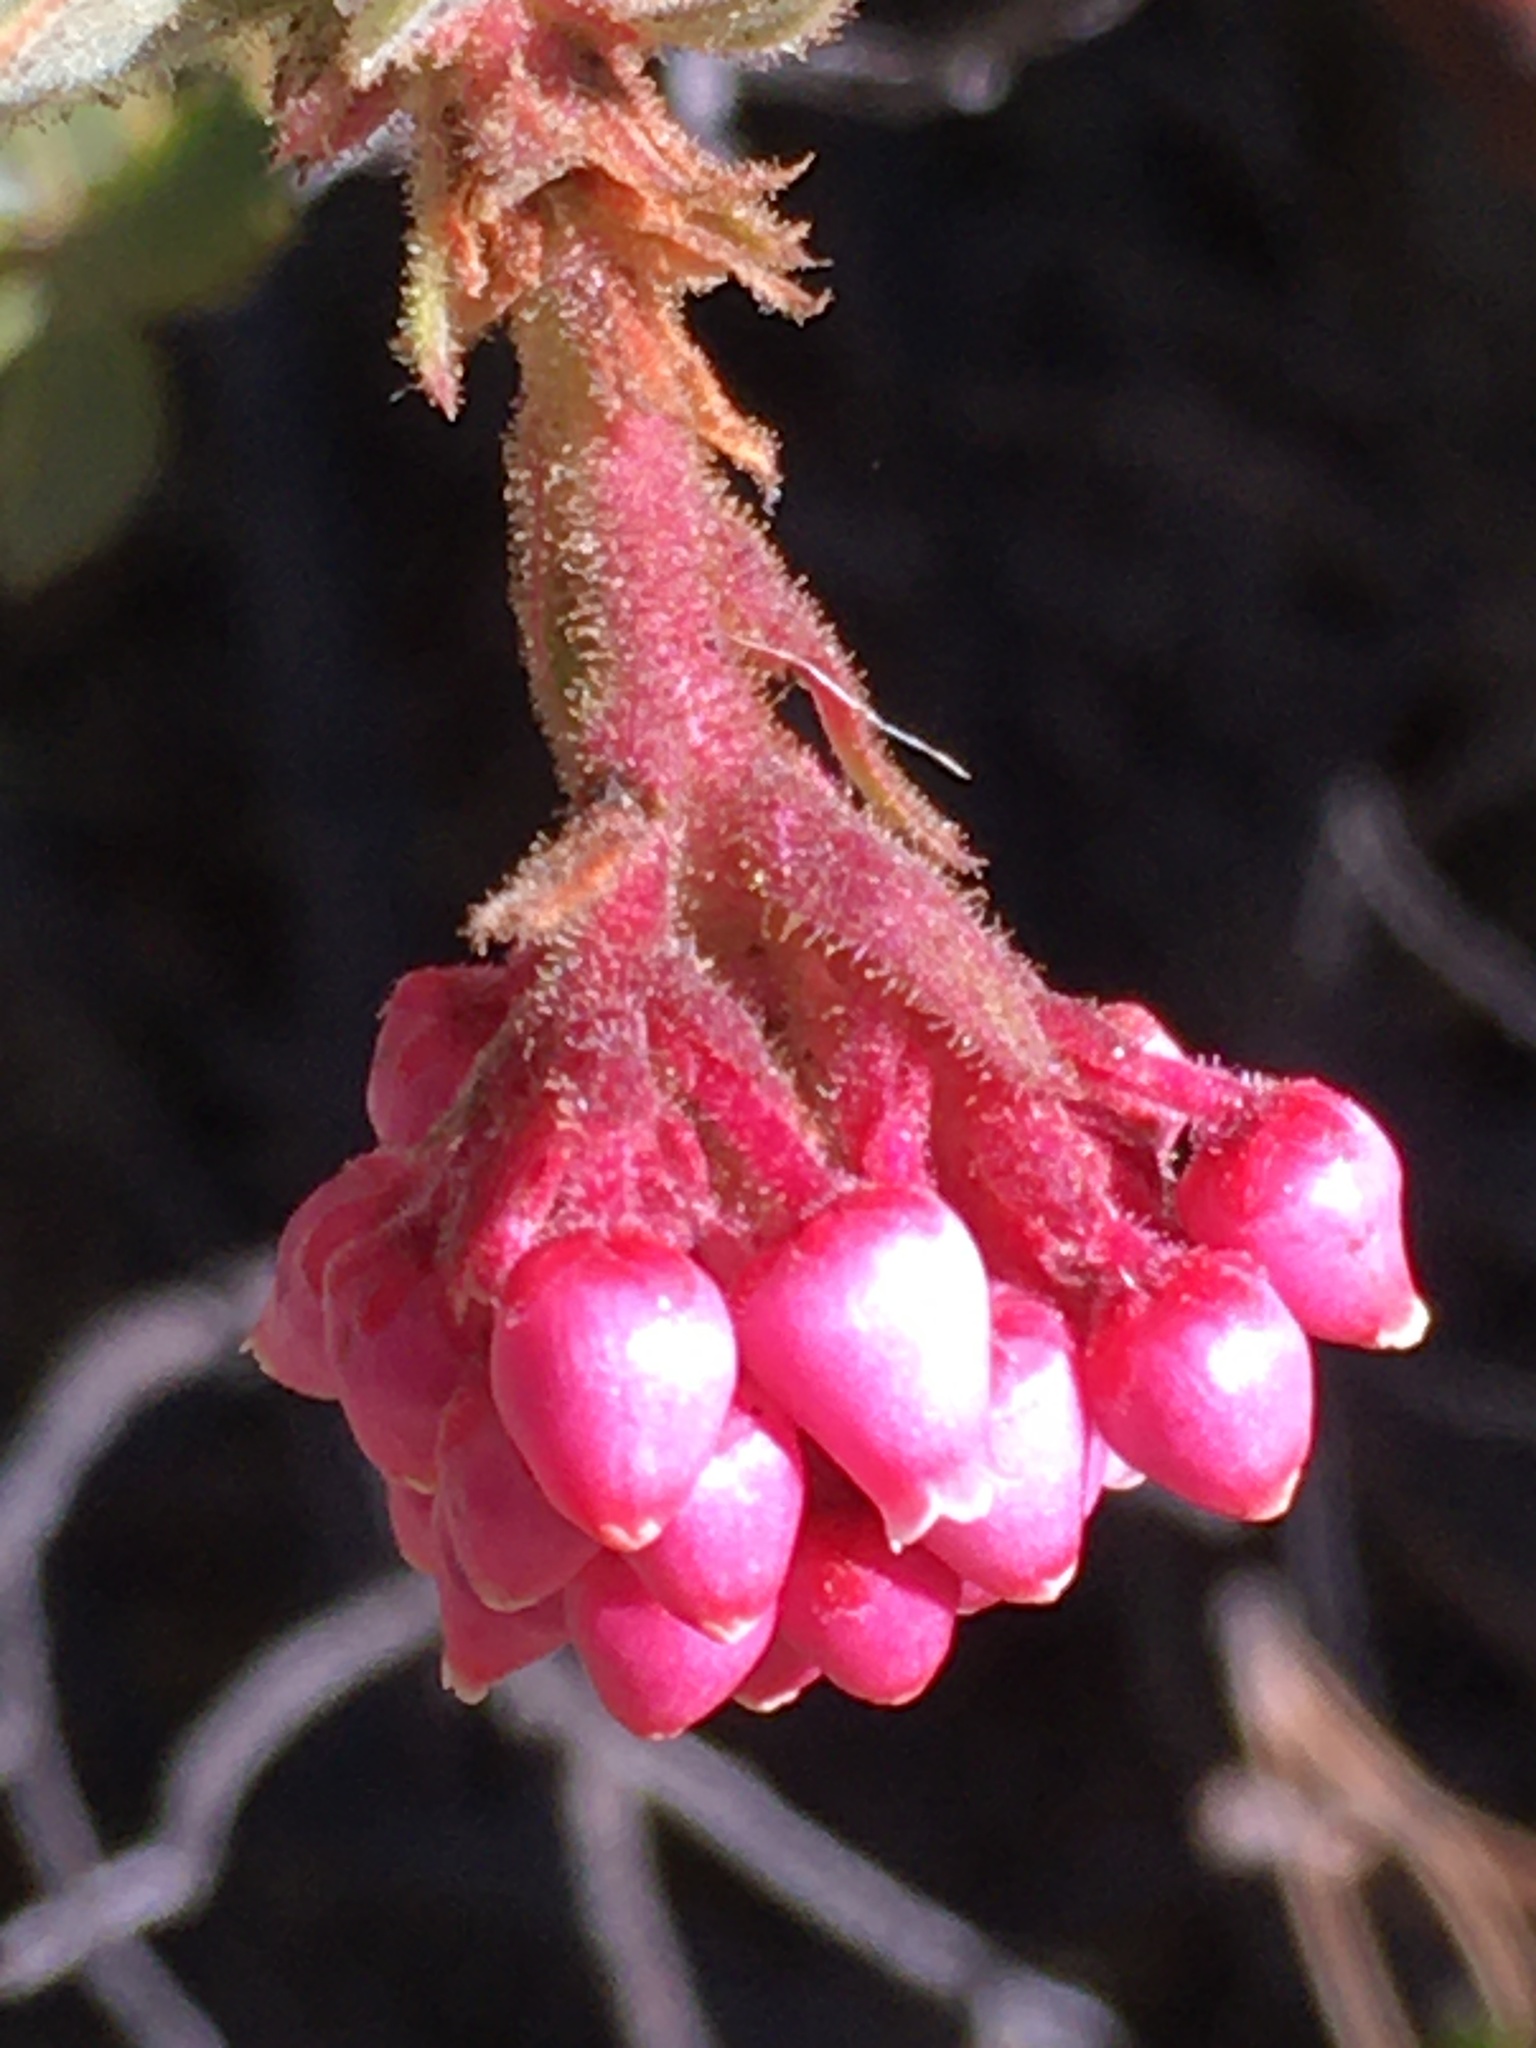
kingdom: Plantae
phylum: Tracheophyta
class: Magnoliopsida
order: Ericales
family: Ericaceae
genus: Arctostaphylos
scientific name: Arctostaphylos pringlei
